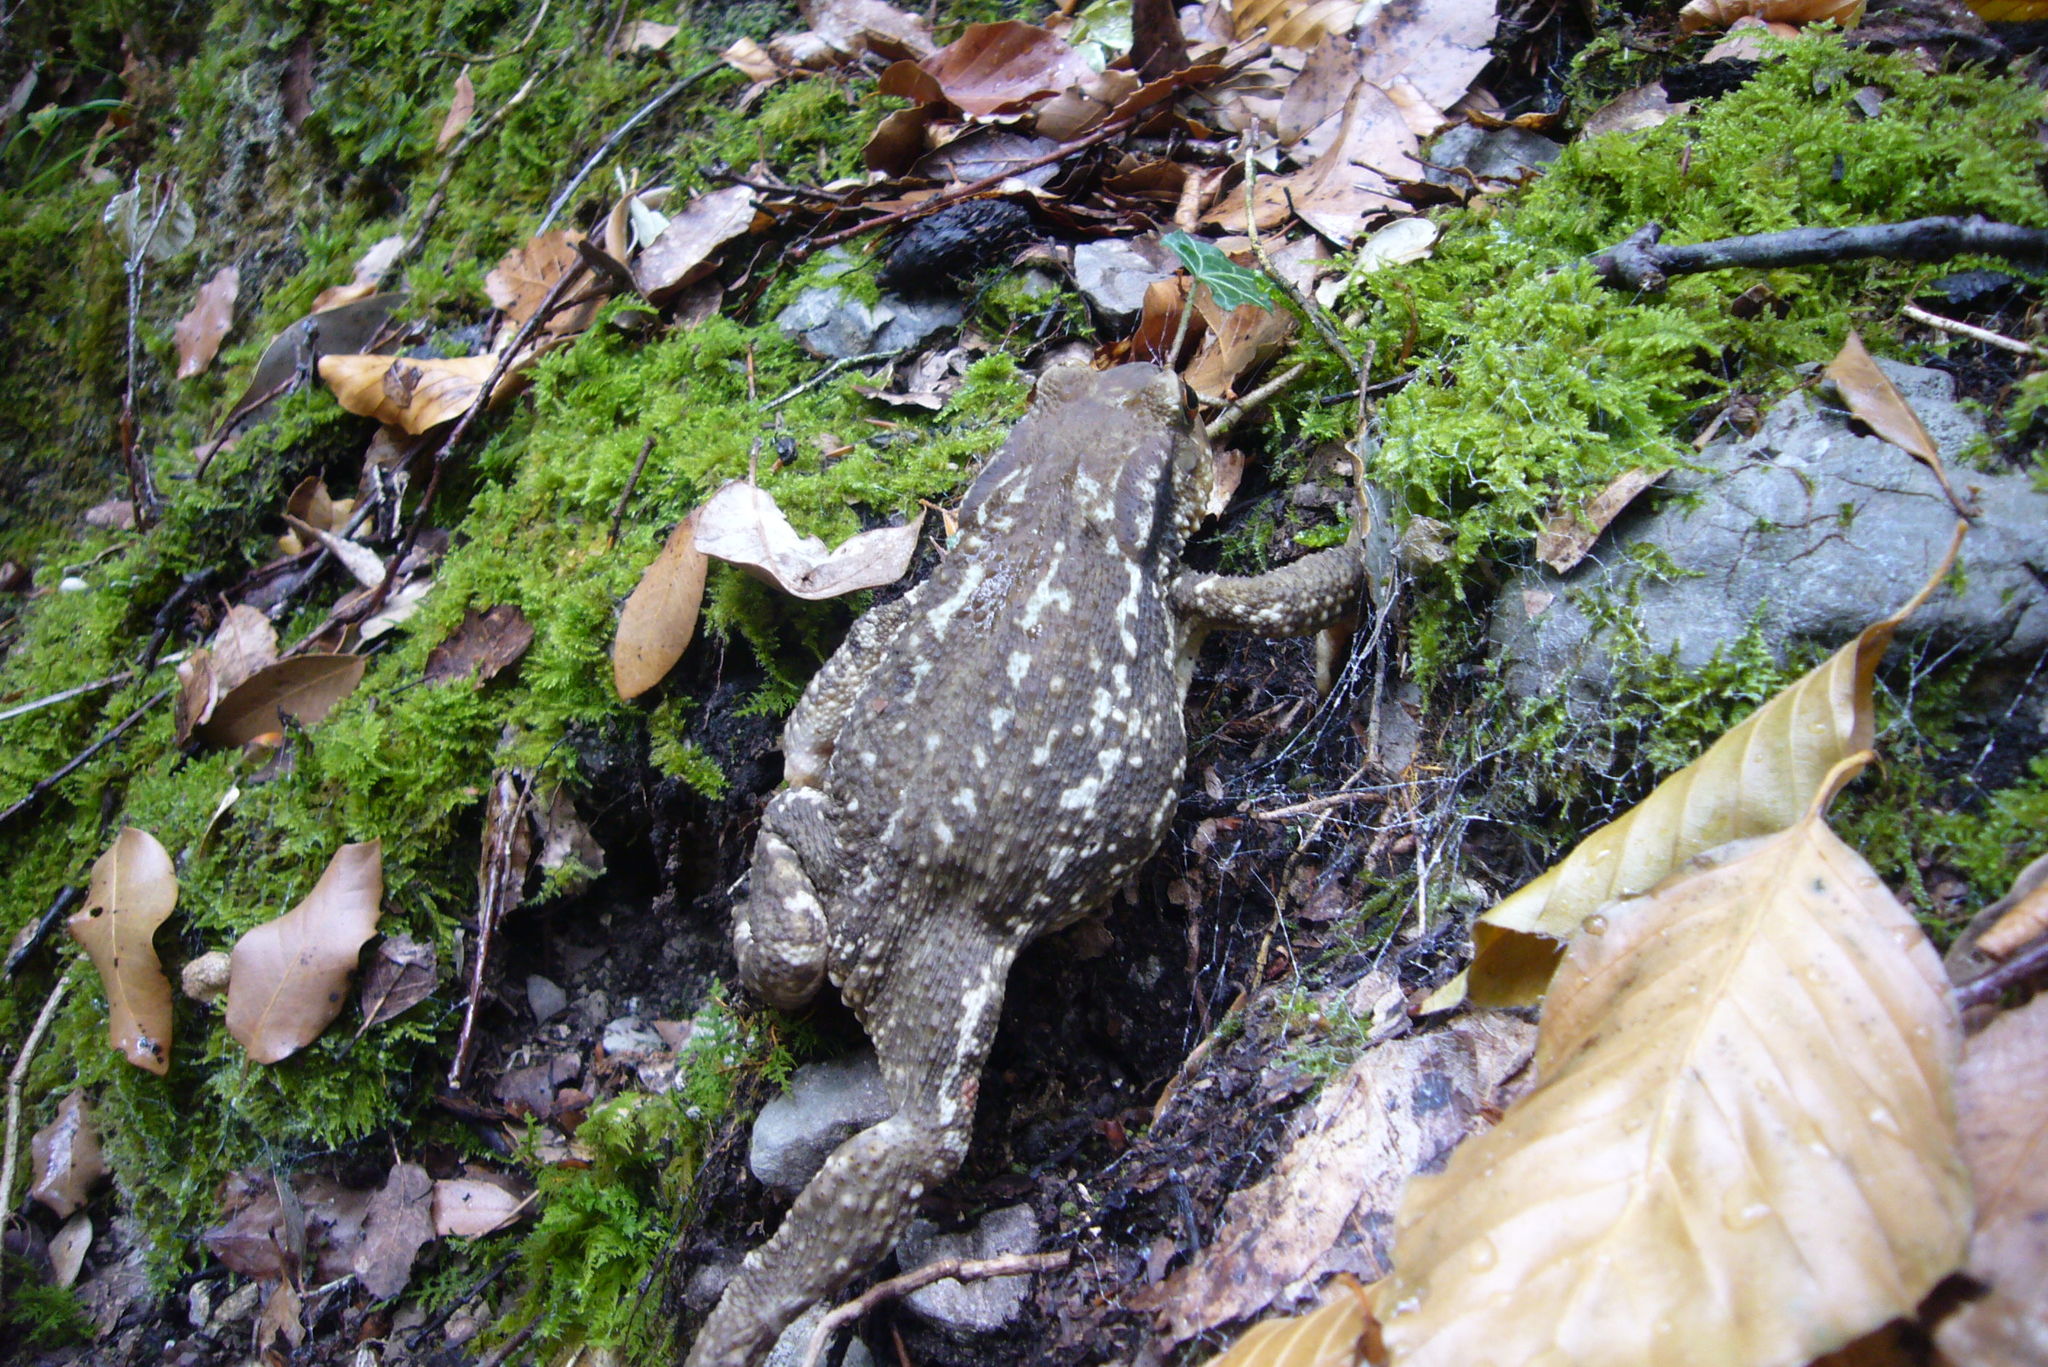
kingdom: Animalia
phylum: Chordata
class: Amphibia
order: Anura
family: Bufonidae
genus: Bufo
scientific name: Bufo spinosus
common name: Western common toad
